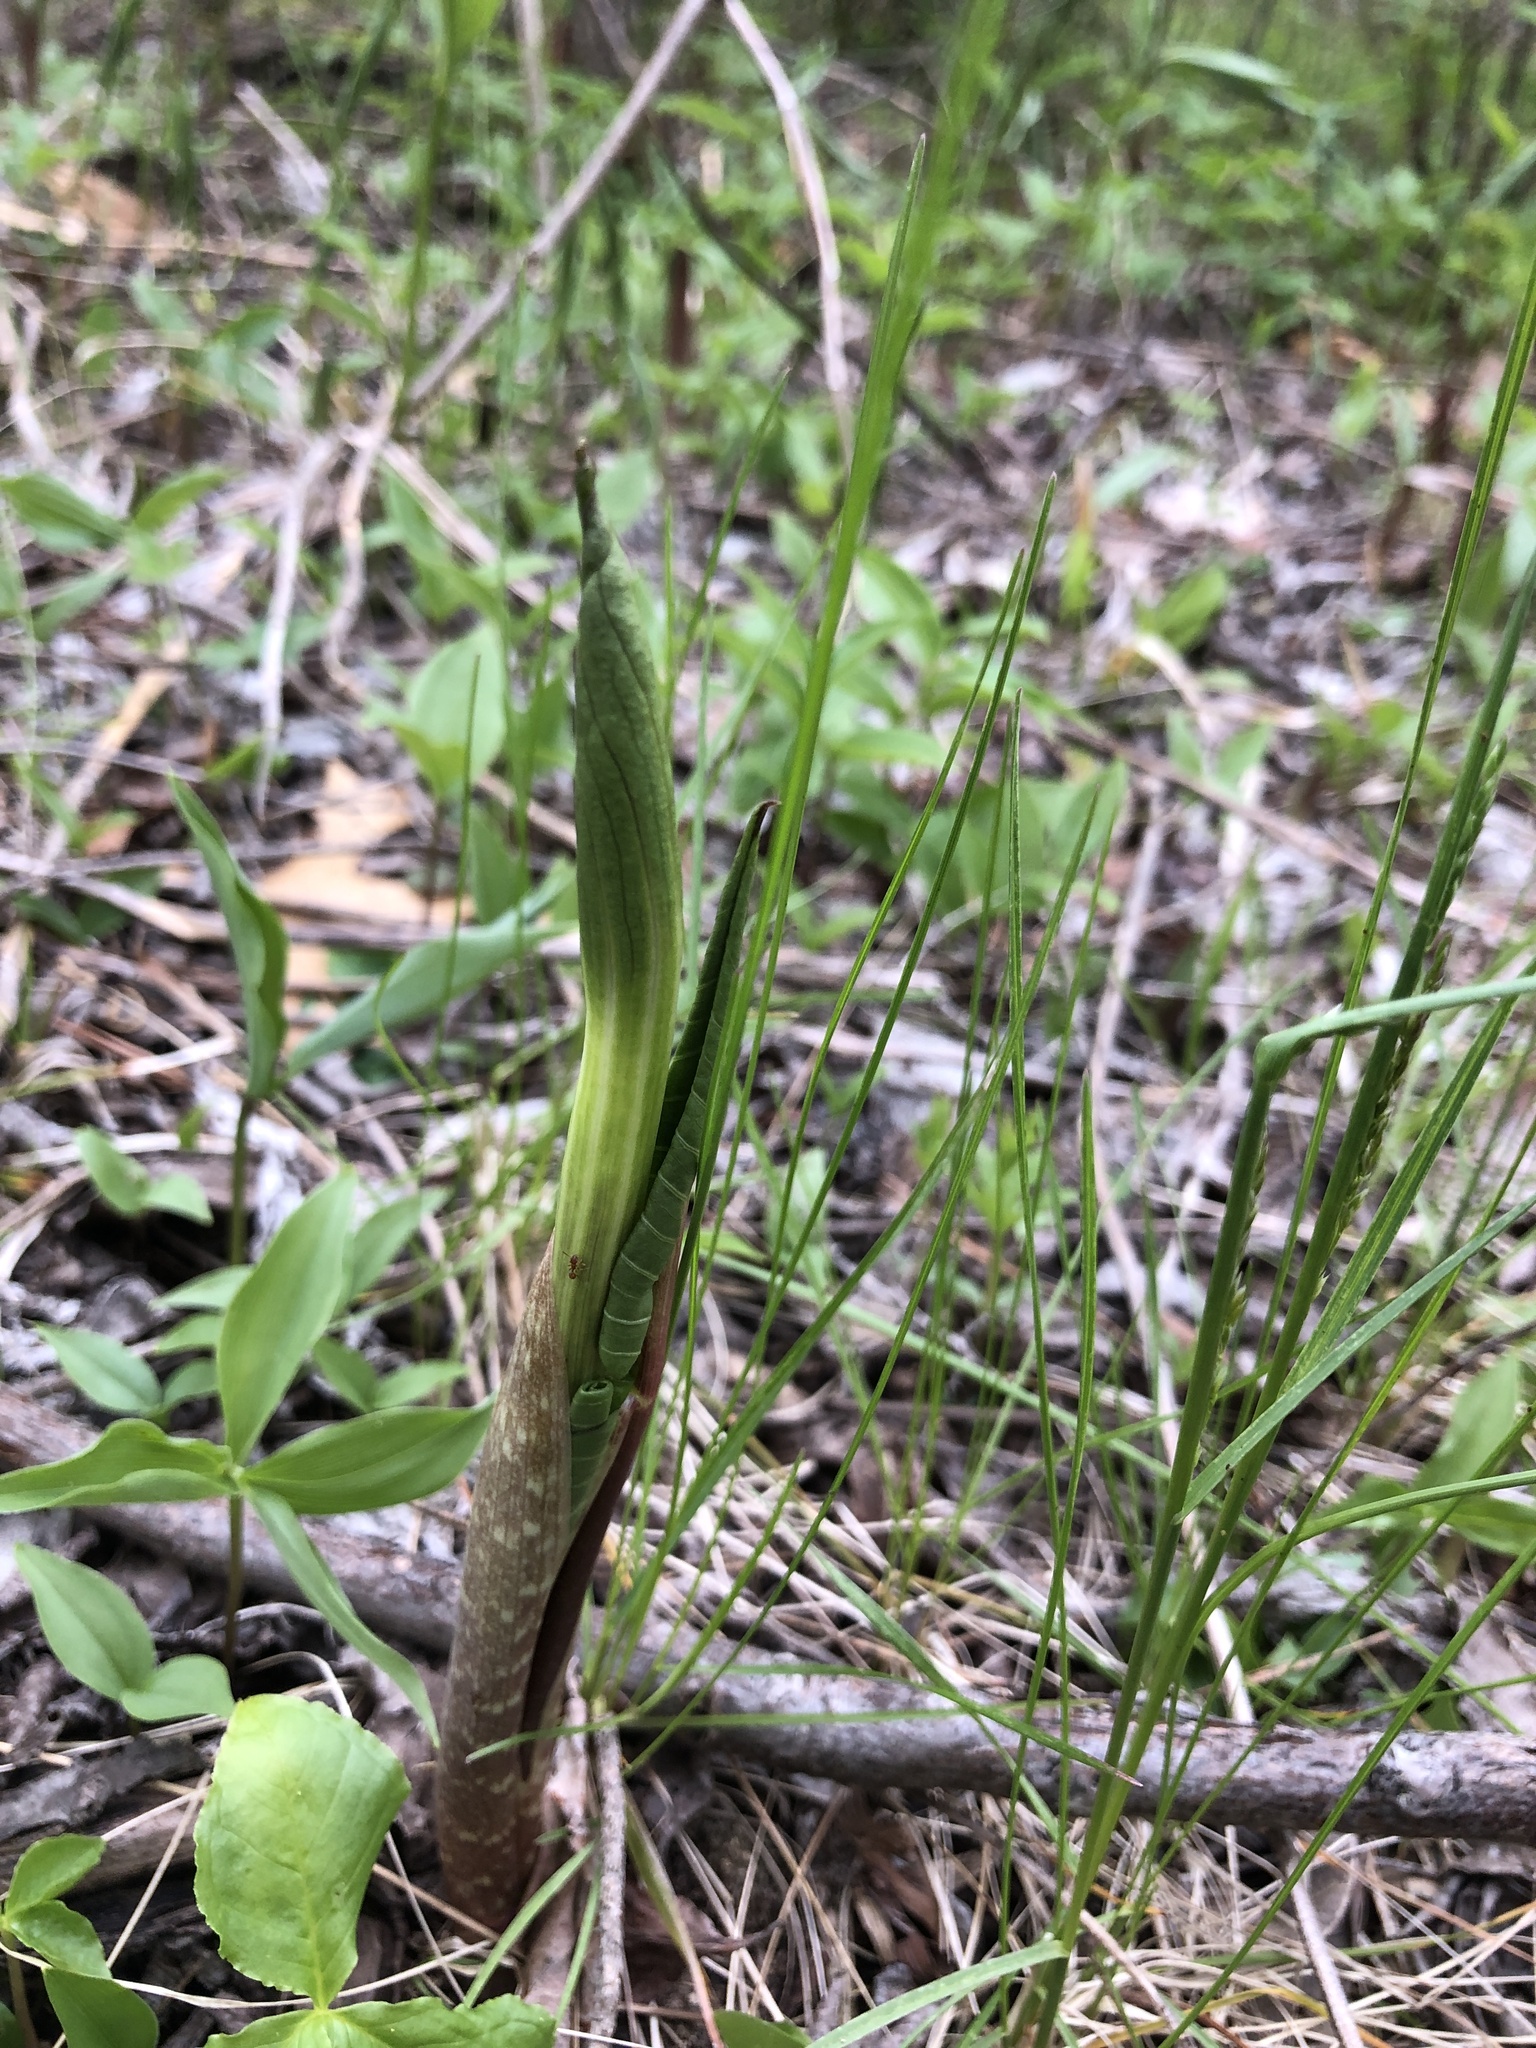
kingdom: Plantae
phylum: Tracheophyta
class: Liliopsida
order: Alismatales
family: Araceae
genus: Arisaema
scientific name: Arisaema triphyllum
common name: Jack-in-the-pulpit
